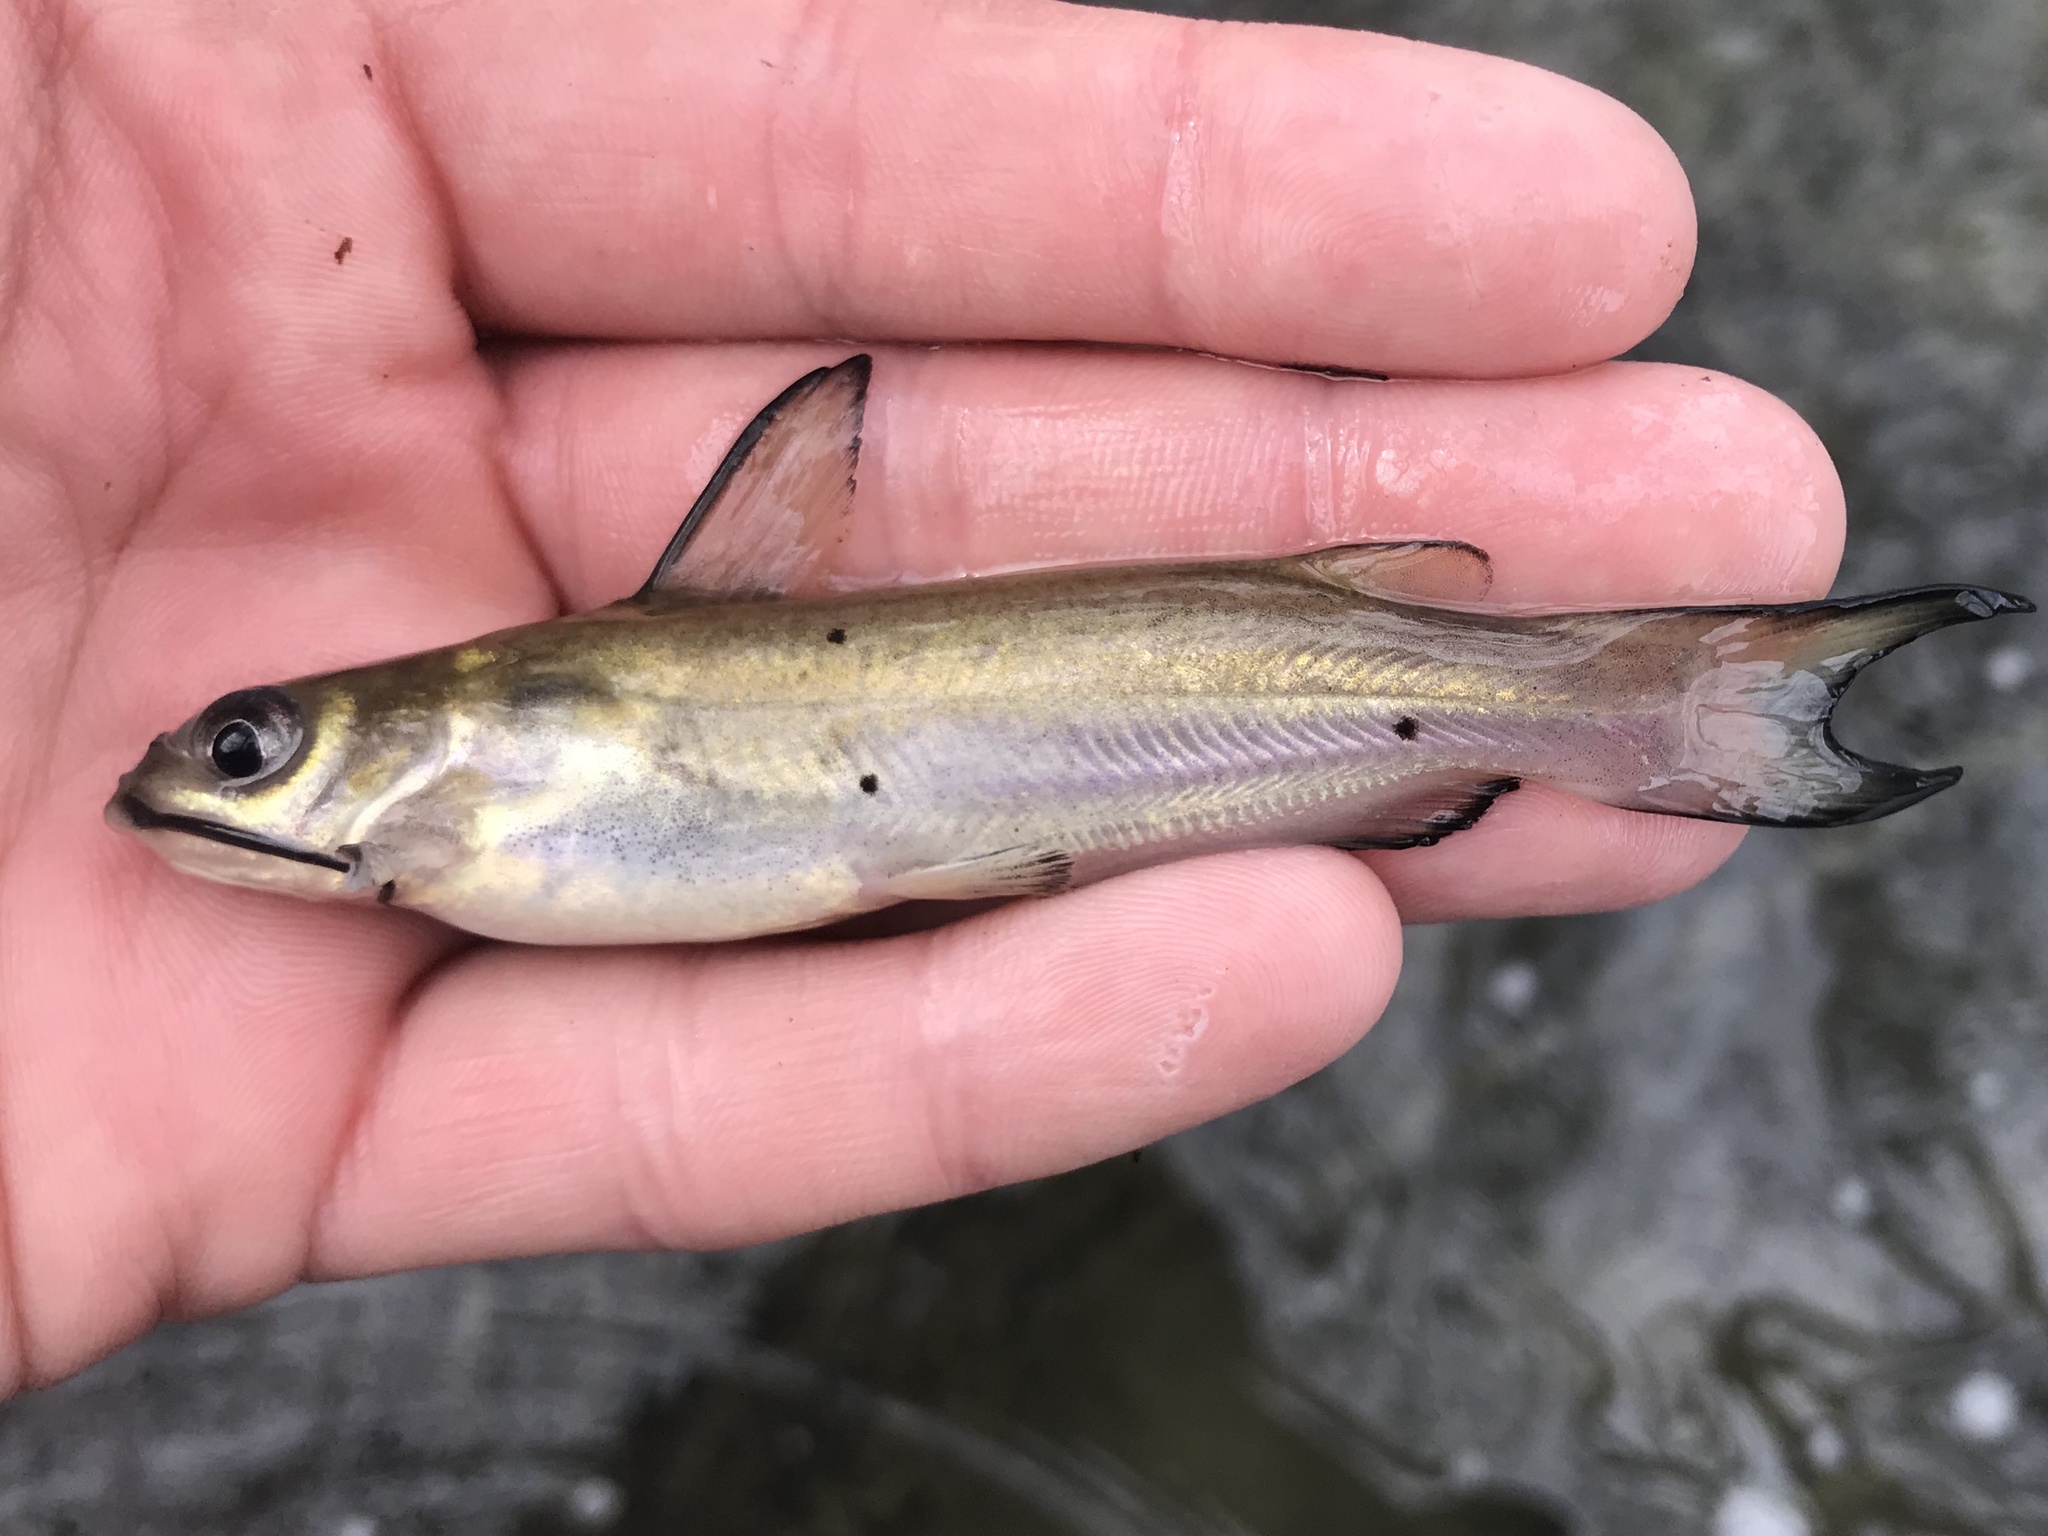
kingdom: Animalia
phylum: Chordata
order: Siluriformes
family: Ictaluridae
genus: Ictalurus
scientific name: Ictalurus punctatus
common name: Channel catfish
